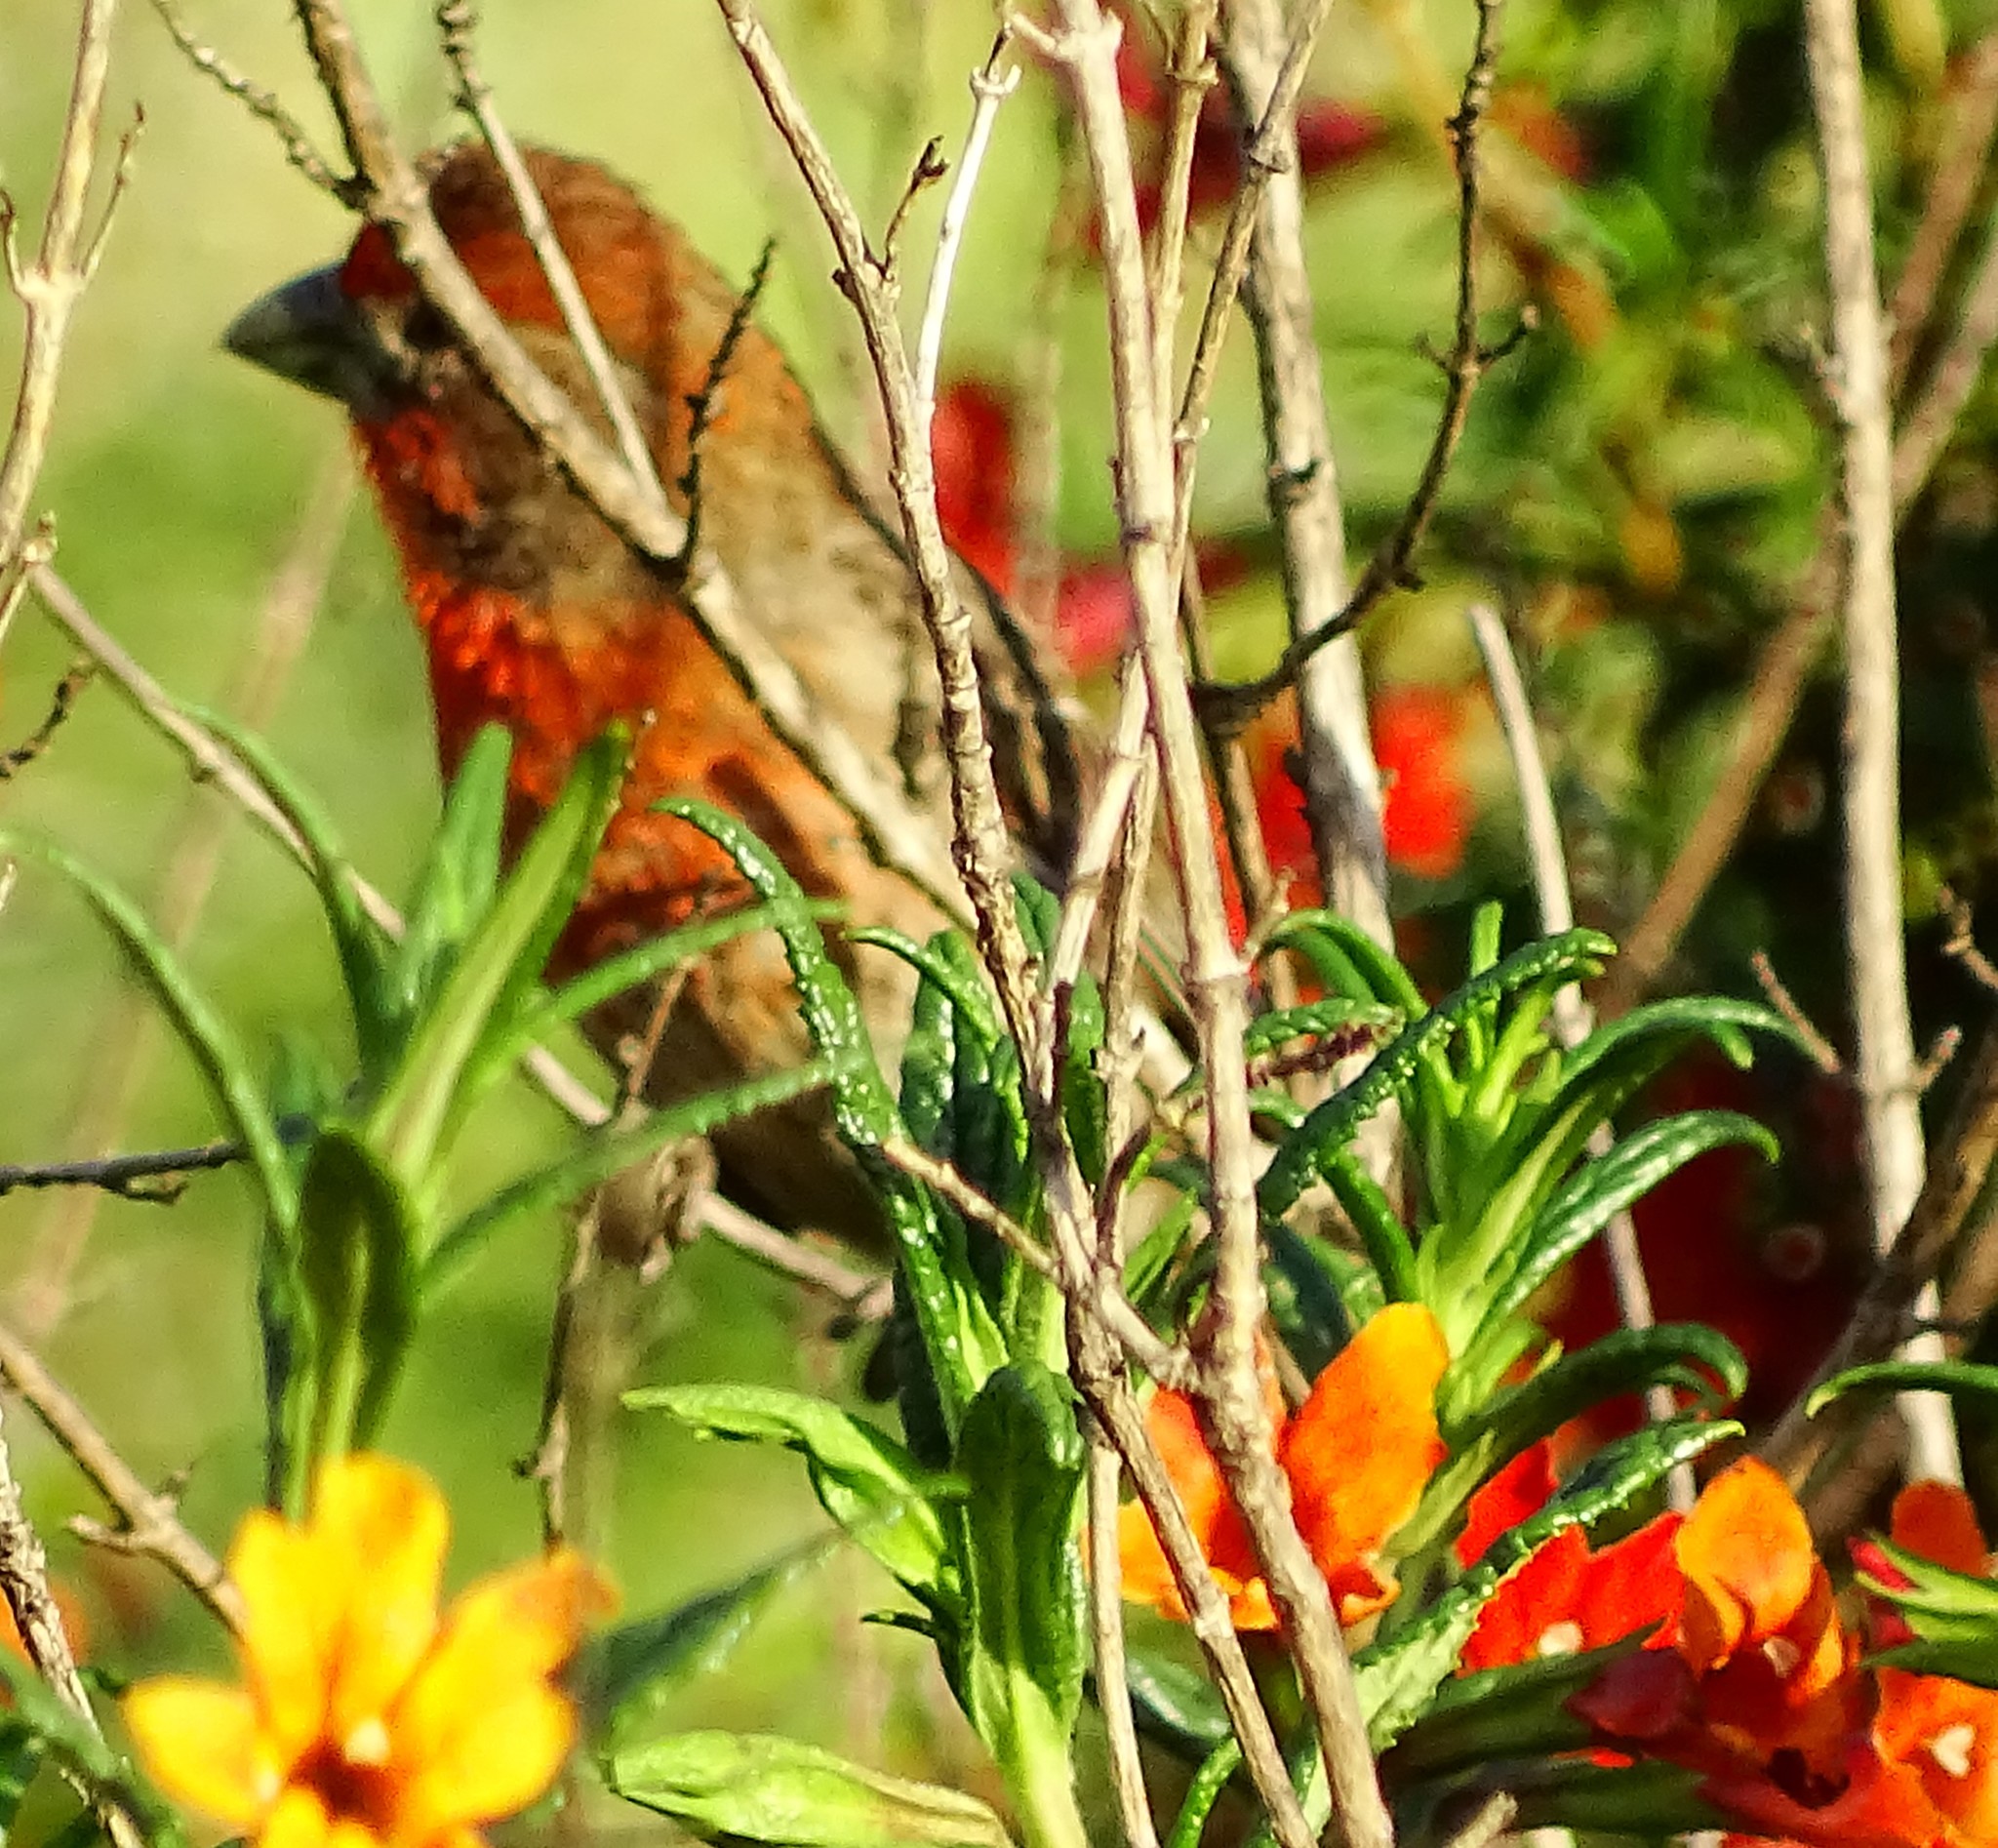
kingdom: Animalia
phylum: Chordata
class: Aves
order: Passeriformes
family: Fringillidae
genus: Haemorhous
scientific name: Haemorhous mexicanus
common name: House finch
